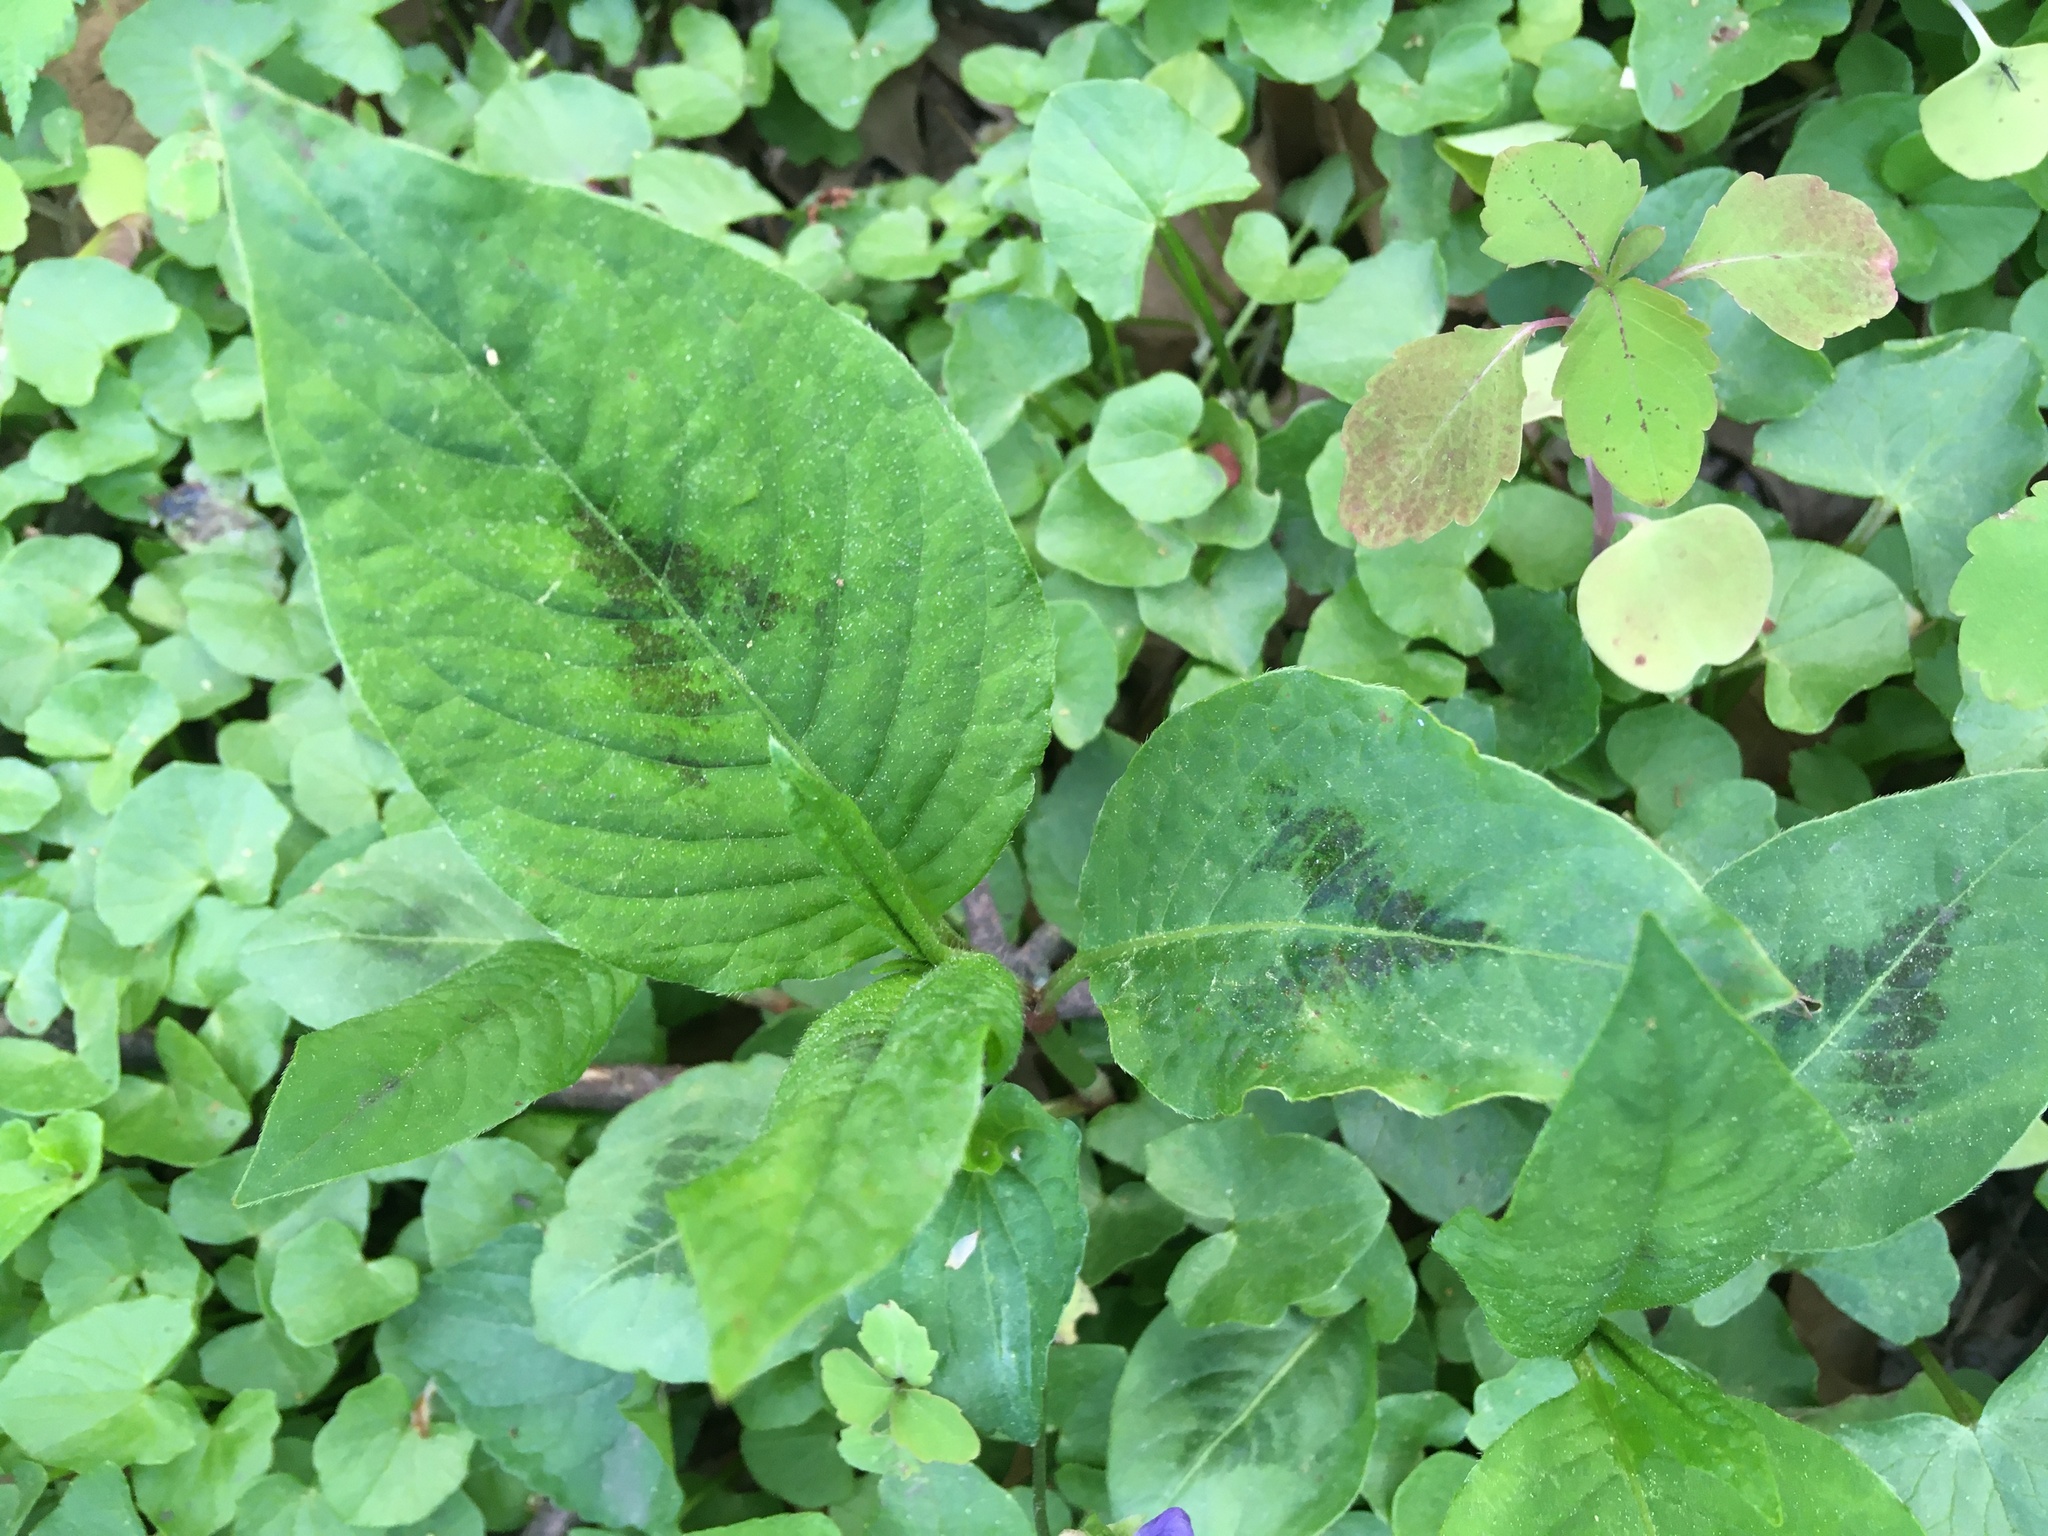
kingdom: Plantae
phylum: Tracheophyta
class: Magnoliopsida
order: Caryophyllales
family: Polygonaceae
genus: Persicaria
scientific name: Persicaria virginiana
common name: Jumpseed
